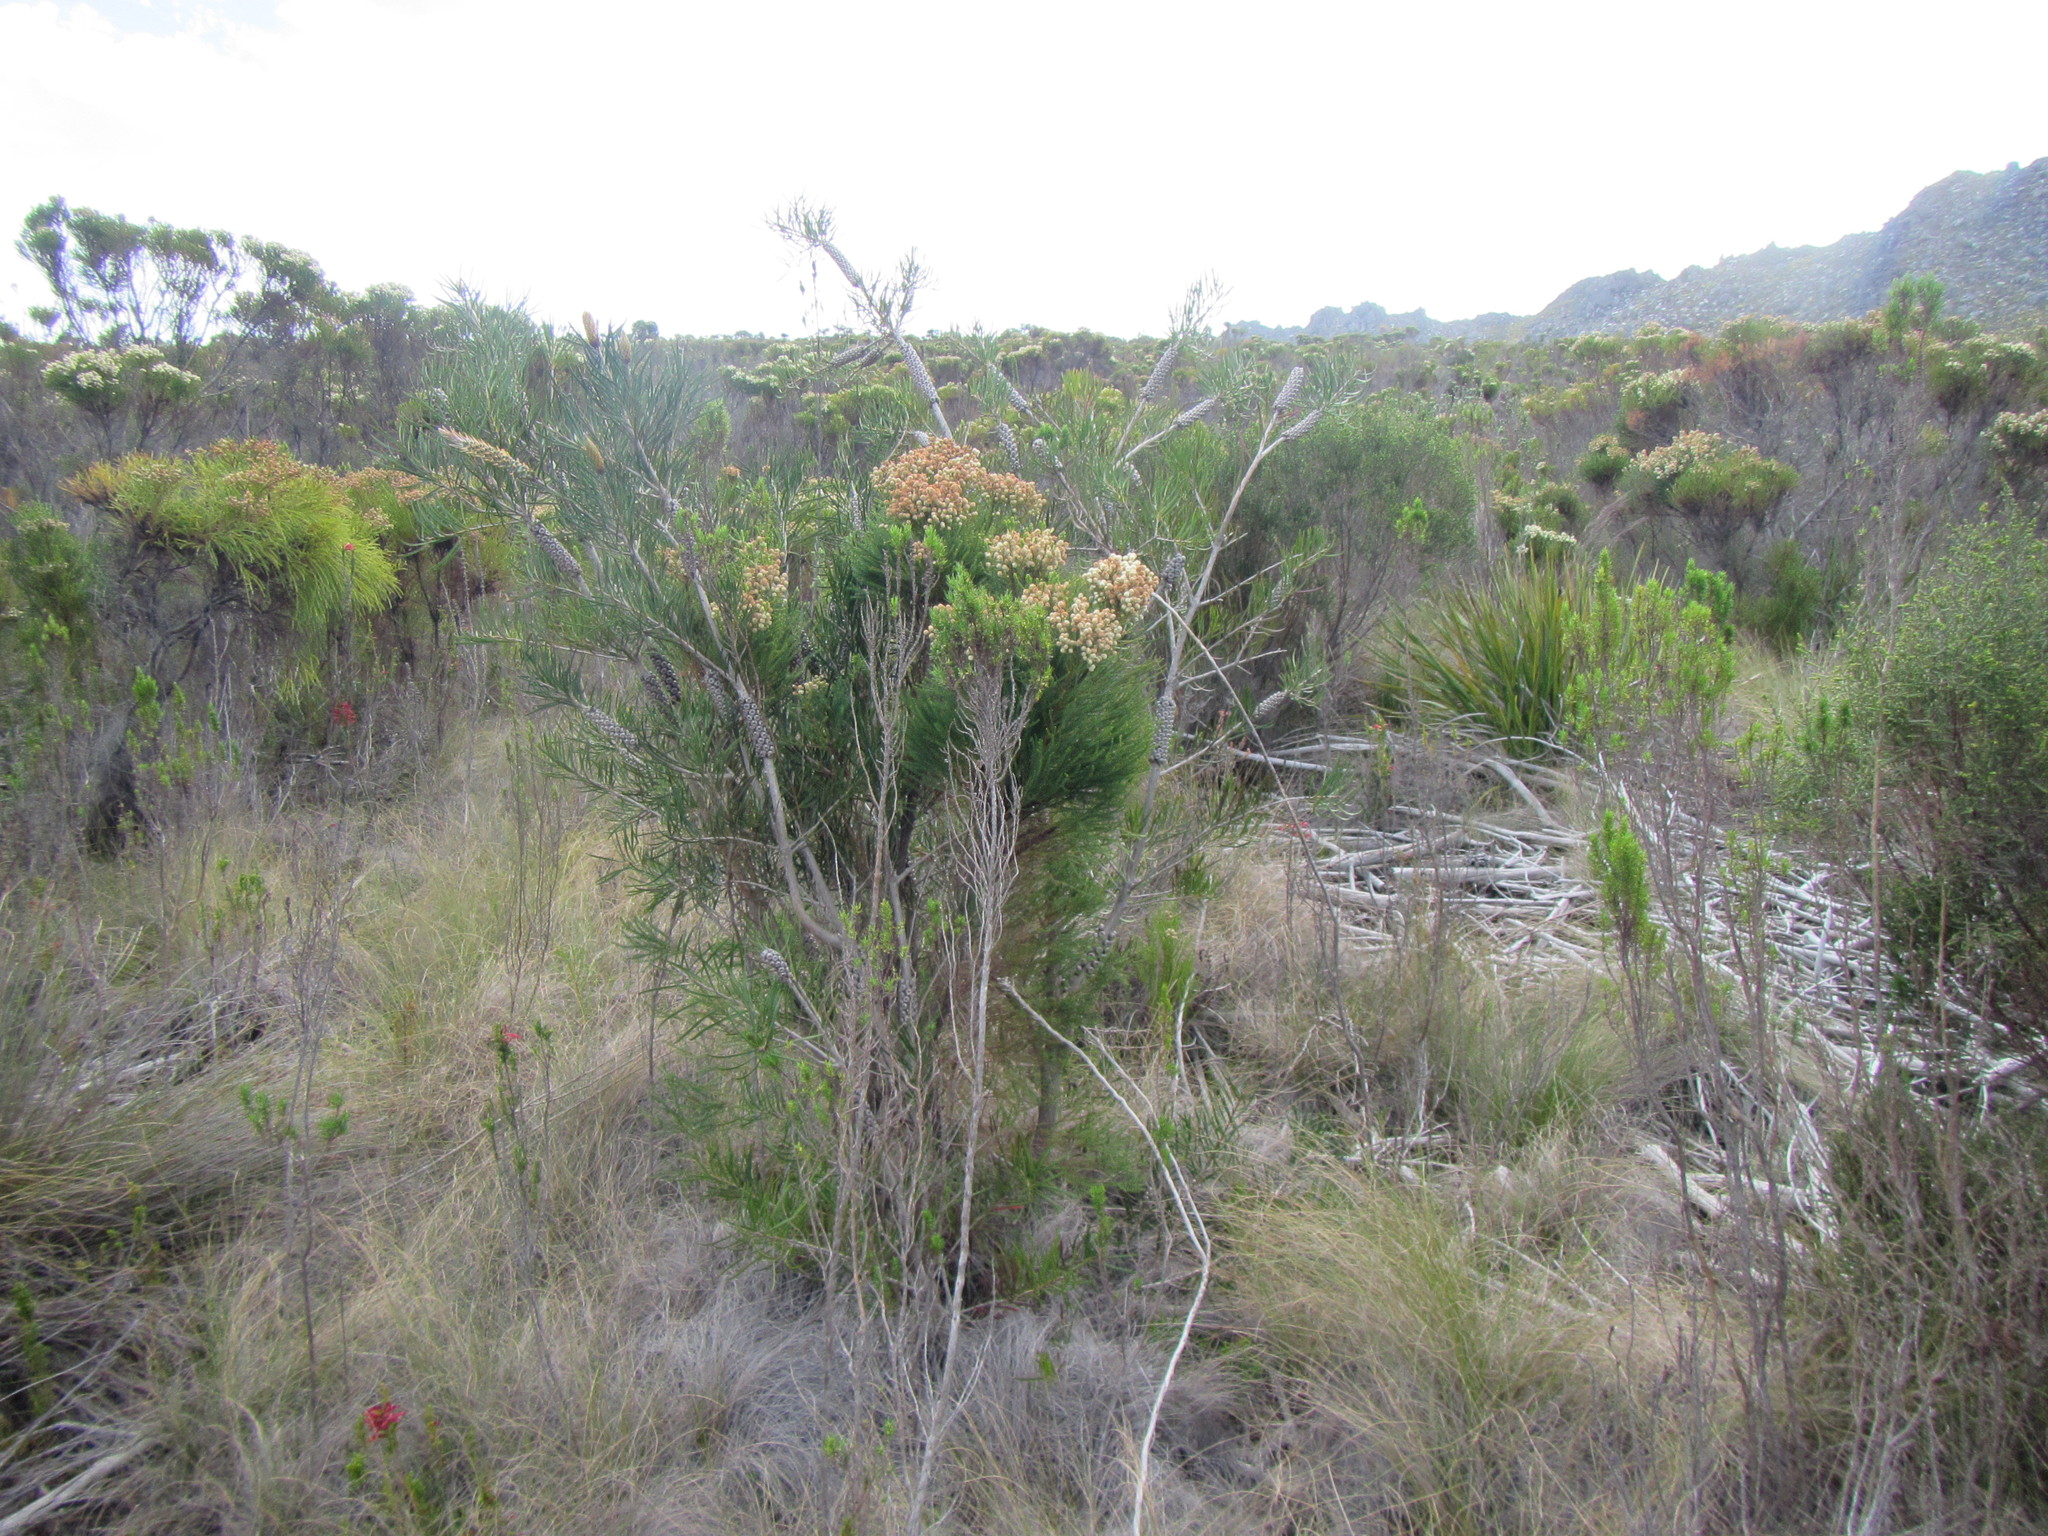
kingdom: Plantae
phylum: Tracheophyta
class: Magnoliopsida
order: Myrtales
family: Myrtaceae
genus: Callistemon
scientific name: Callistemon linearis
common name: Narrow-leaf bottlebrush
